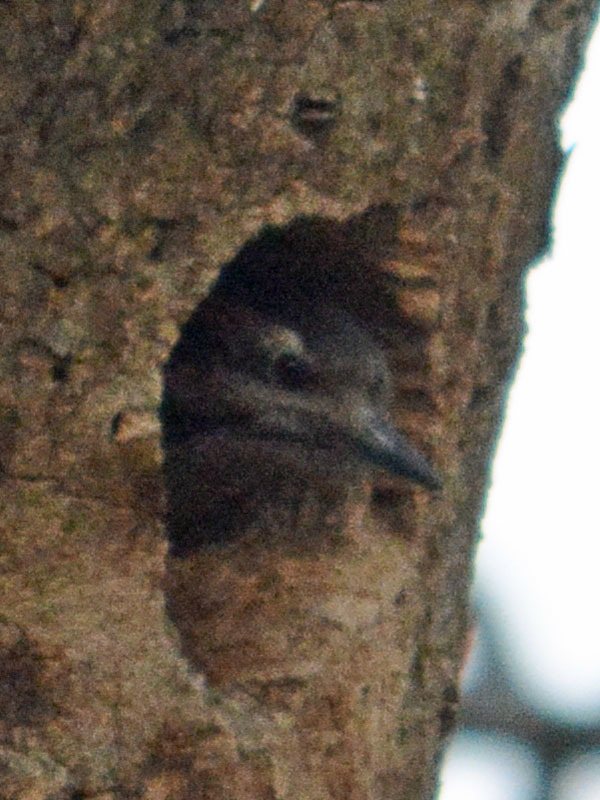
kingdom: Animalia
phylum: Chordata
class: Aves
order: Piciformes
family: Picidae
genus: Dryobates
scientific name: Dryobates scalaris
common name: Ladder-backed woodpecker
